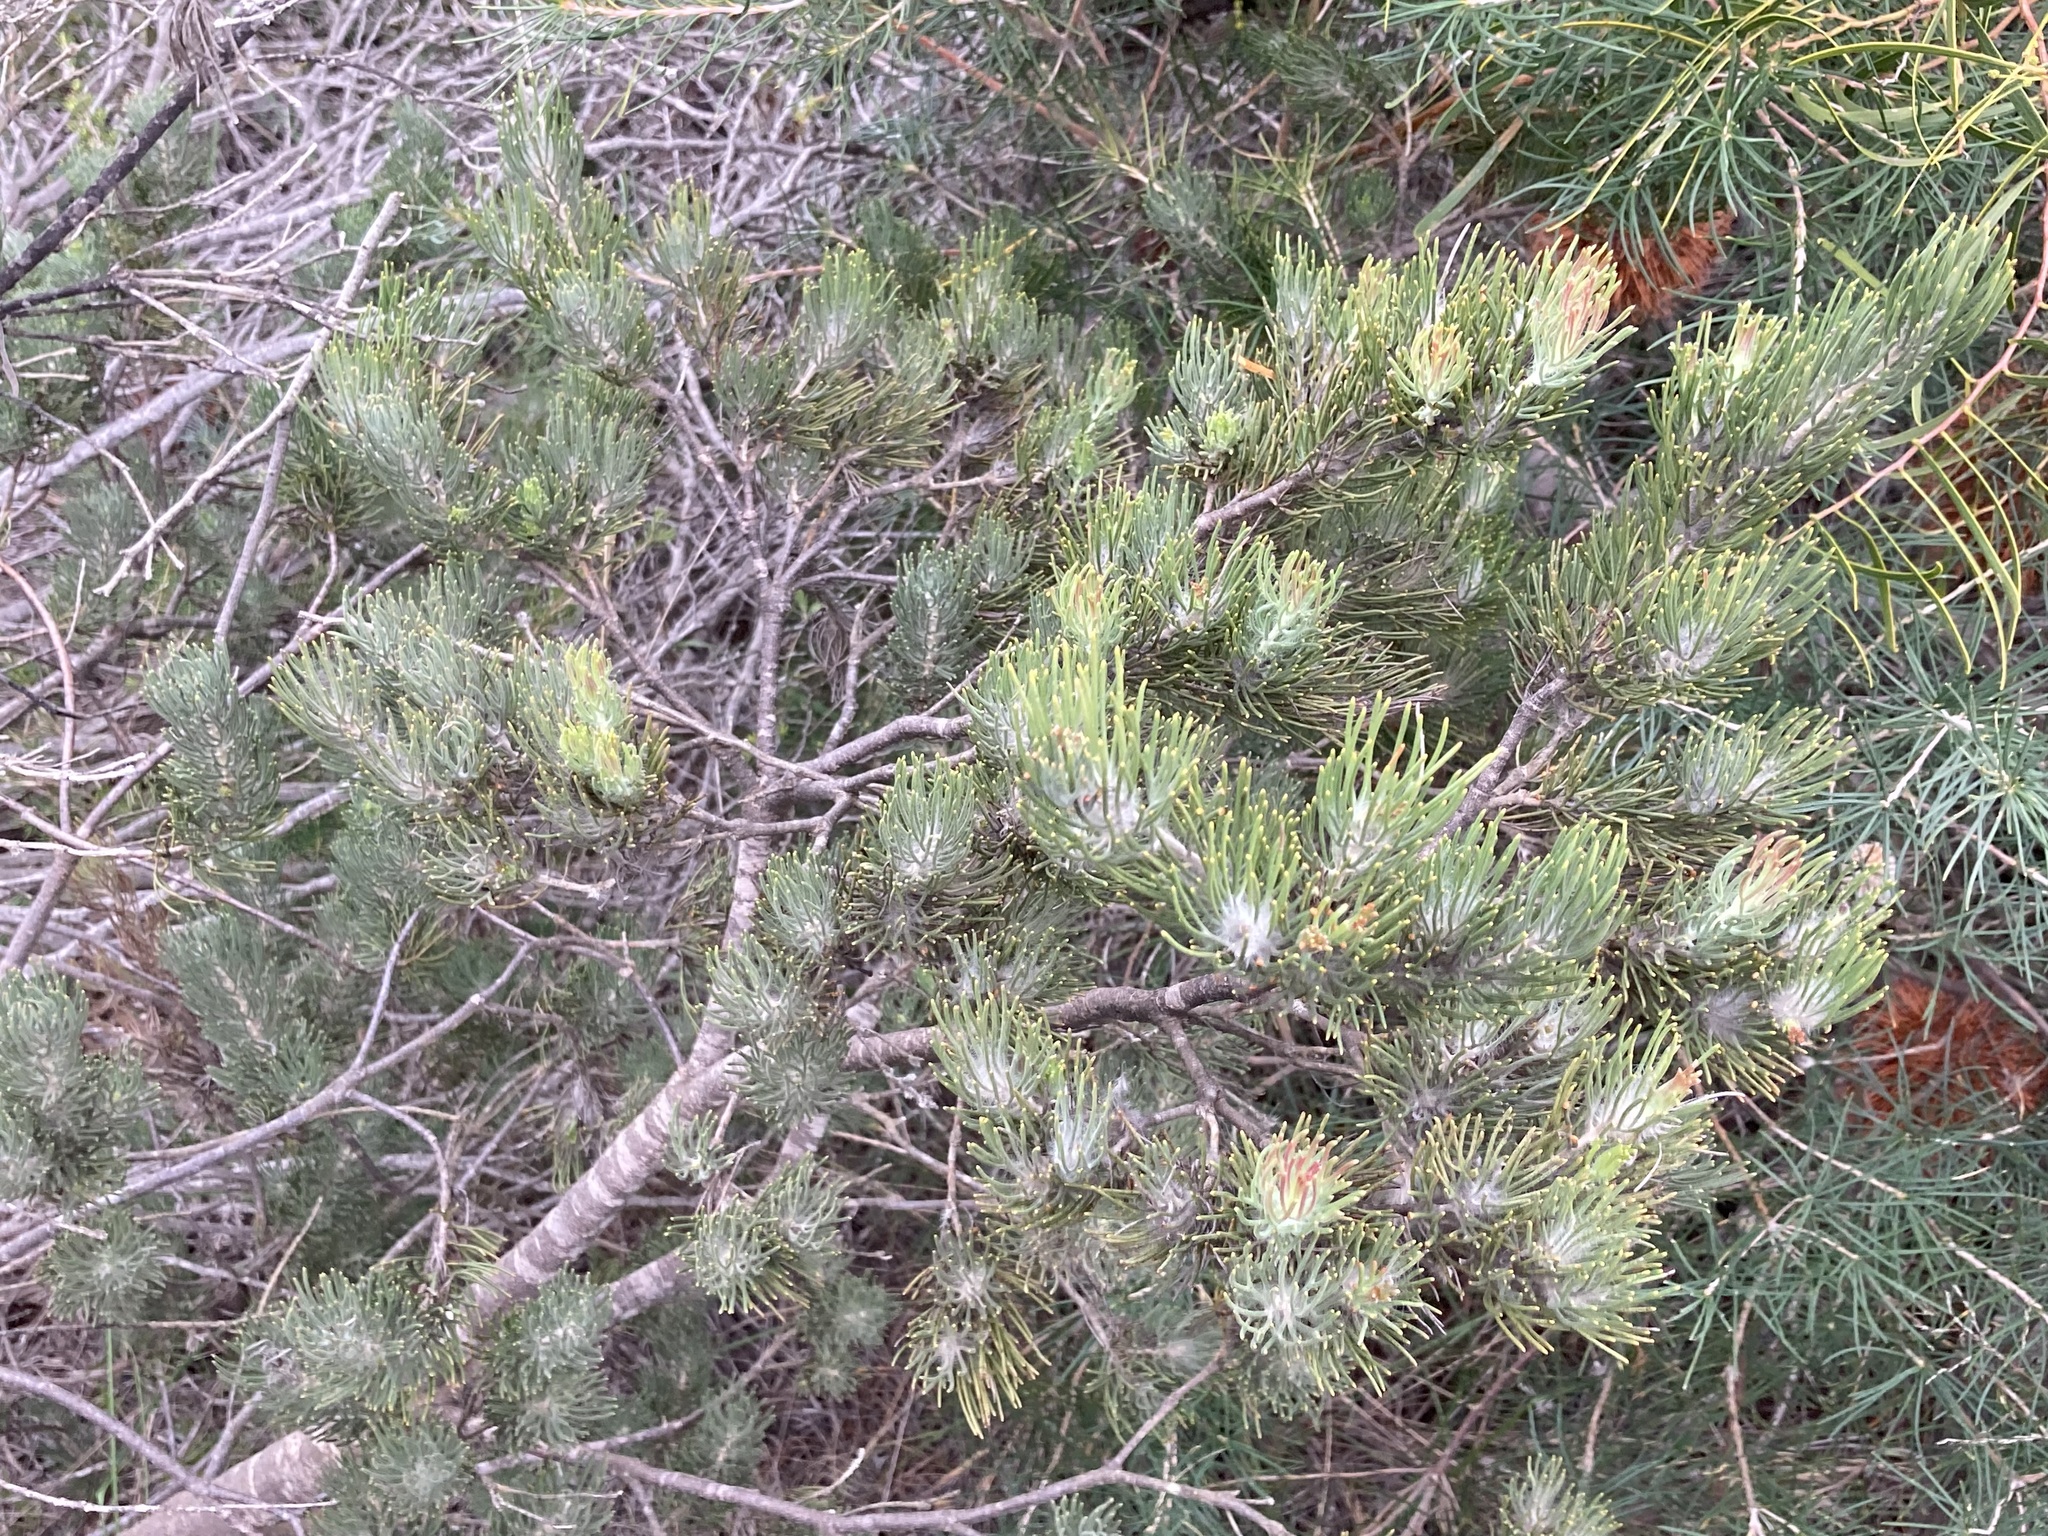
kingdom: Plantae
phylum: Tracheophyta
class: Magnoliopsida
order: Proteales
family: Proteaceae
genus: Adenanthos
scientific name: Adenanthos cygnorum
